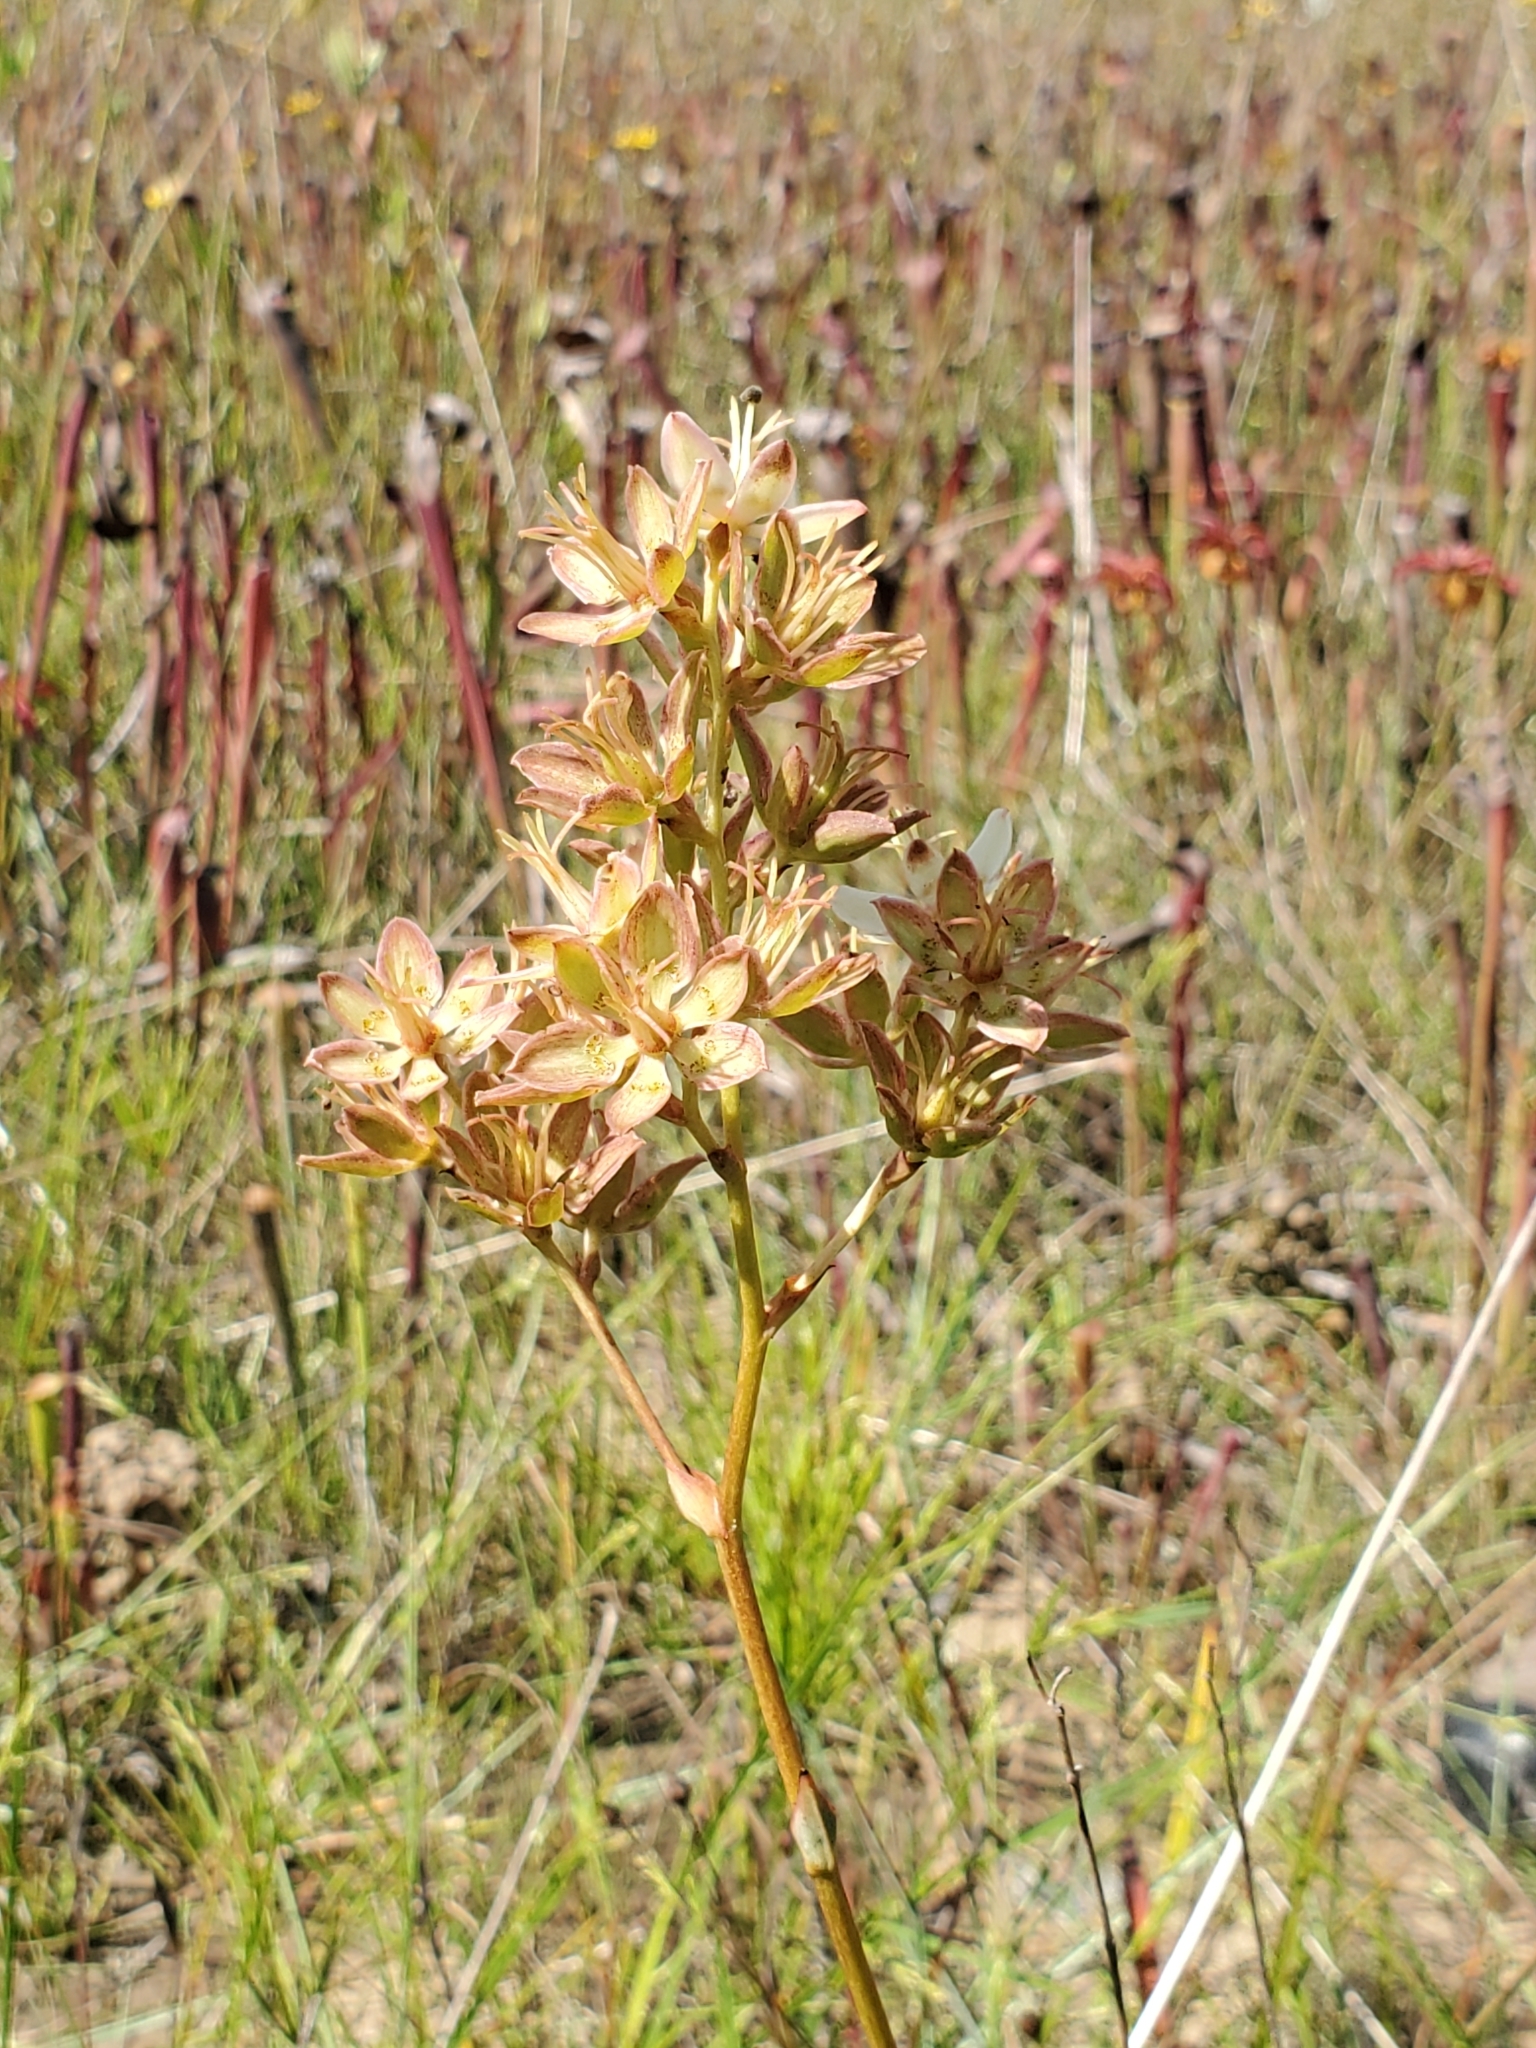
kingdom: Plantae
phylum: Tracheophyta
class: Liliopsida
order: Liliales
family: Melanthiaceae
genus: Zigadenus
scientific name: Zigadenus glaberrimus
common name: Sandbog death camas
